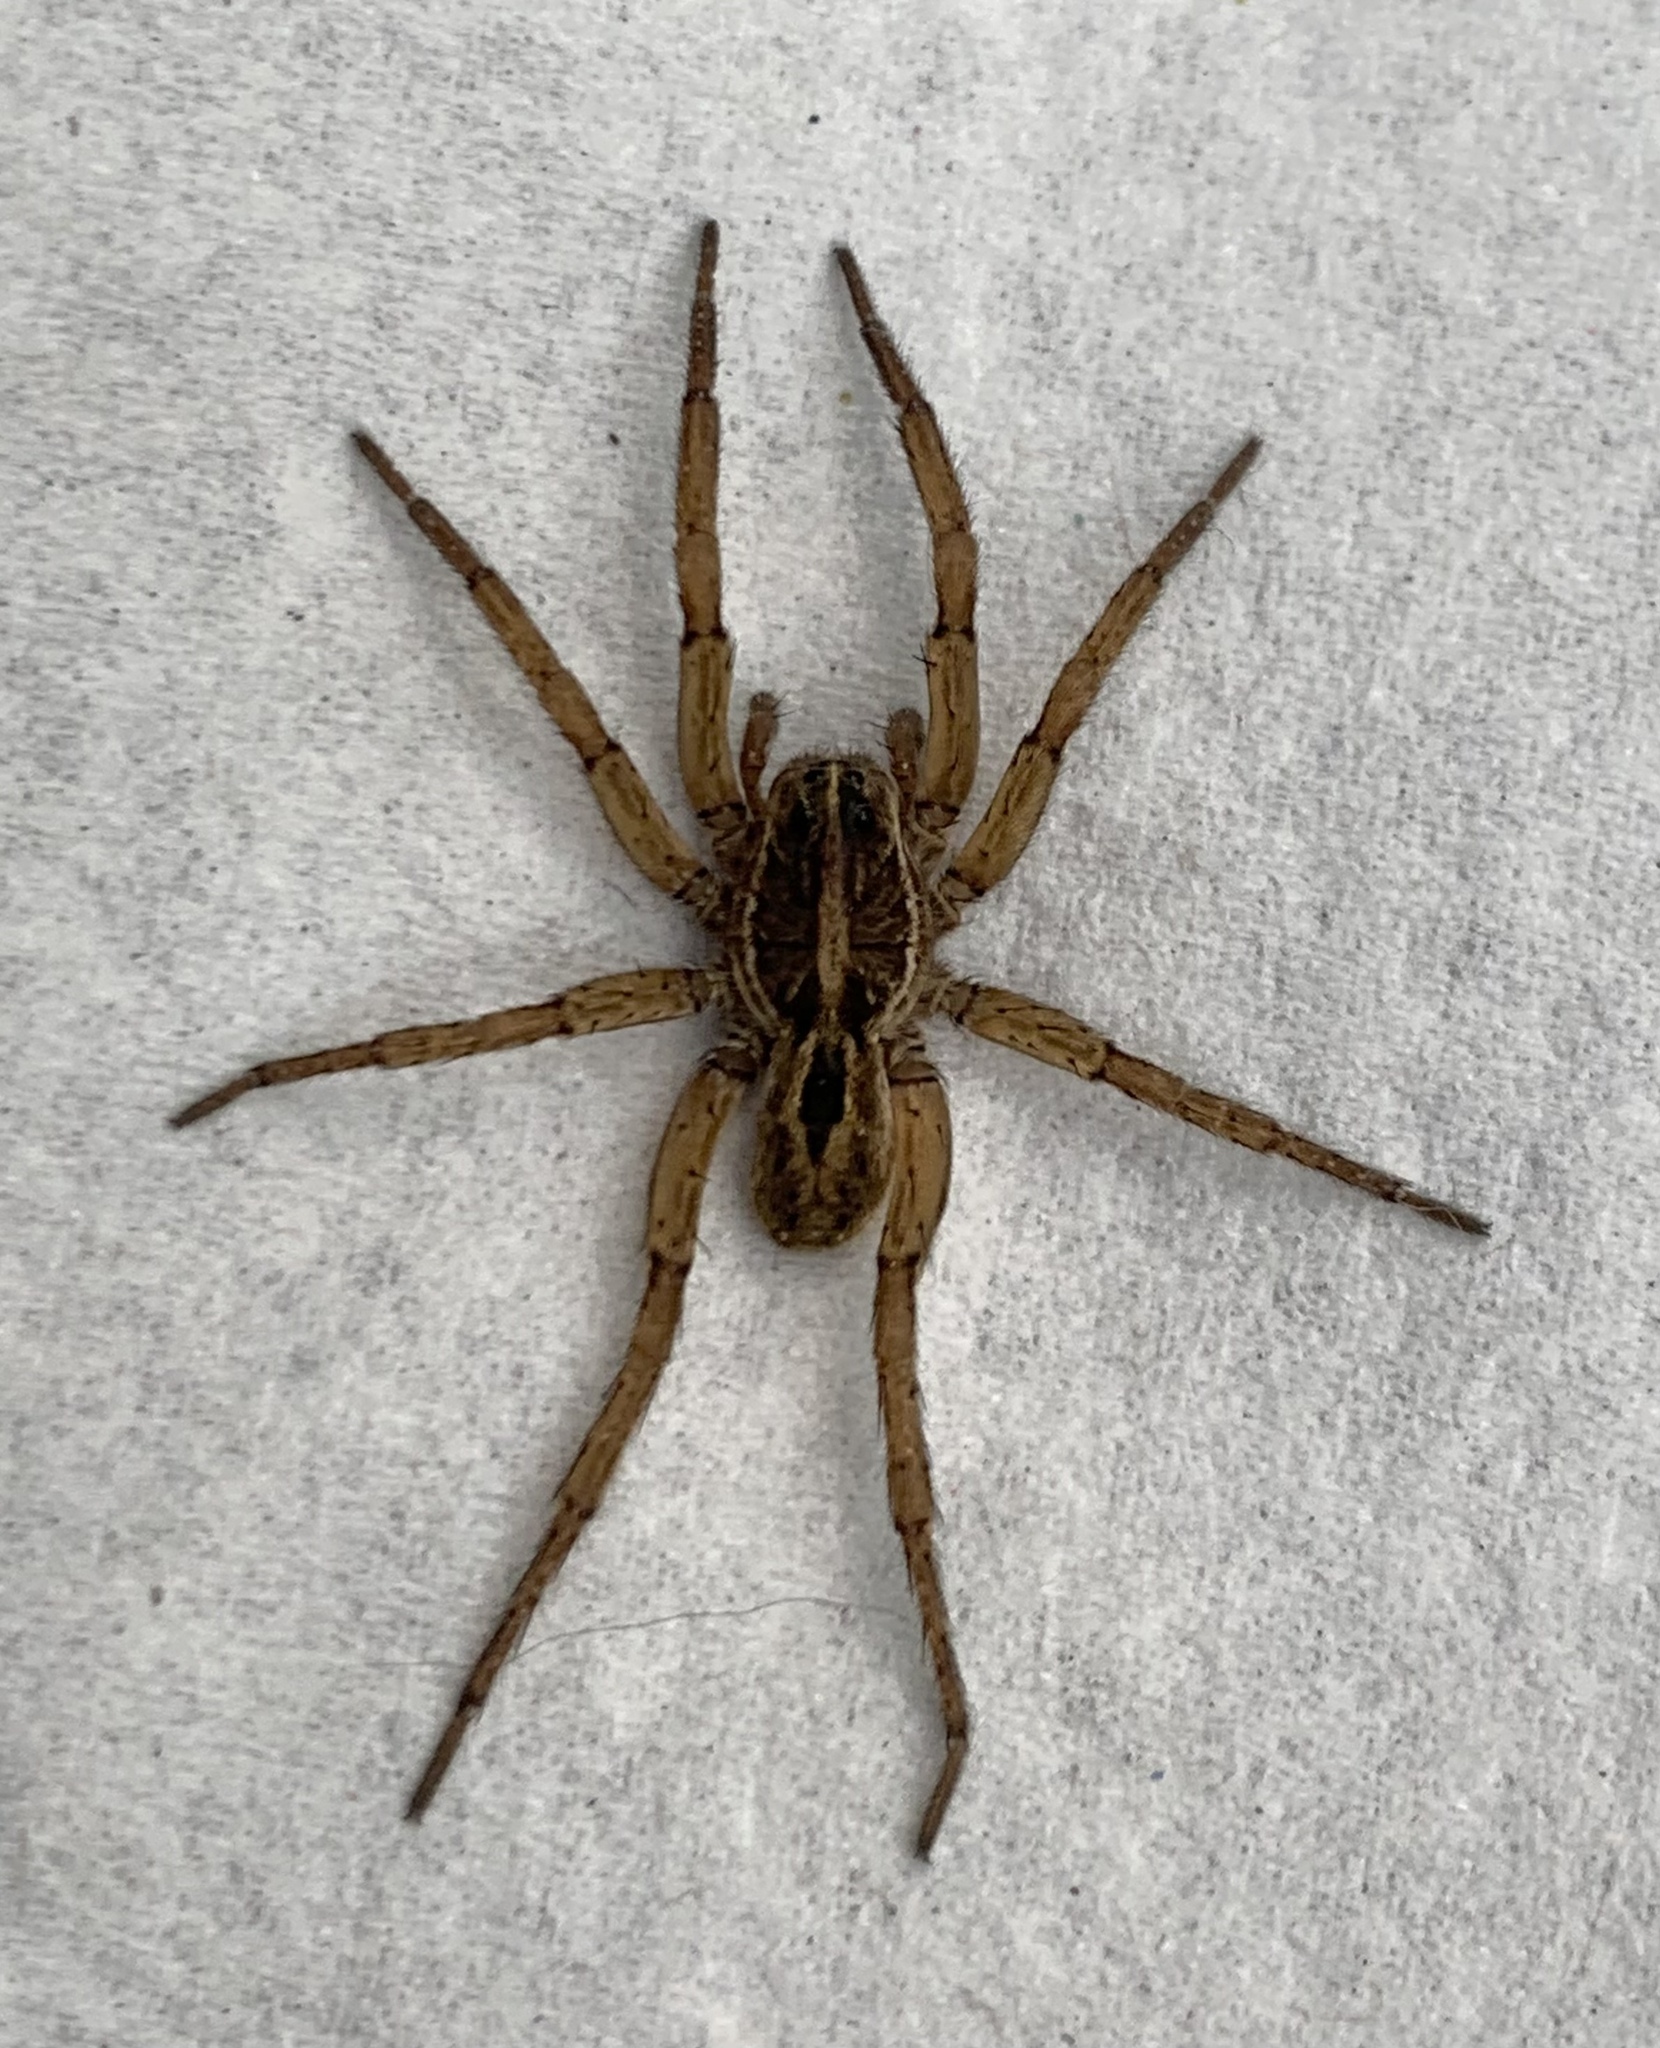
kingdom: Animalia
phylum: Arthropoda
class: Arachnida
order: Araneae
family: Lycosidae
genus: Tigrosa
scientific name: Tigrosa annexa
